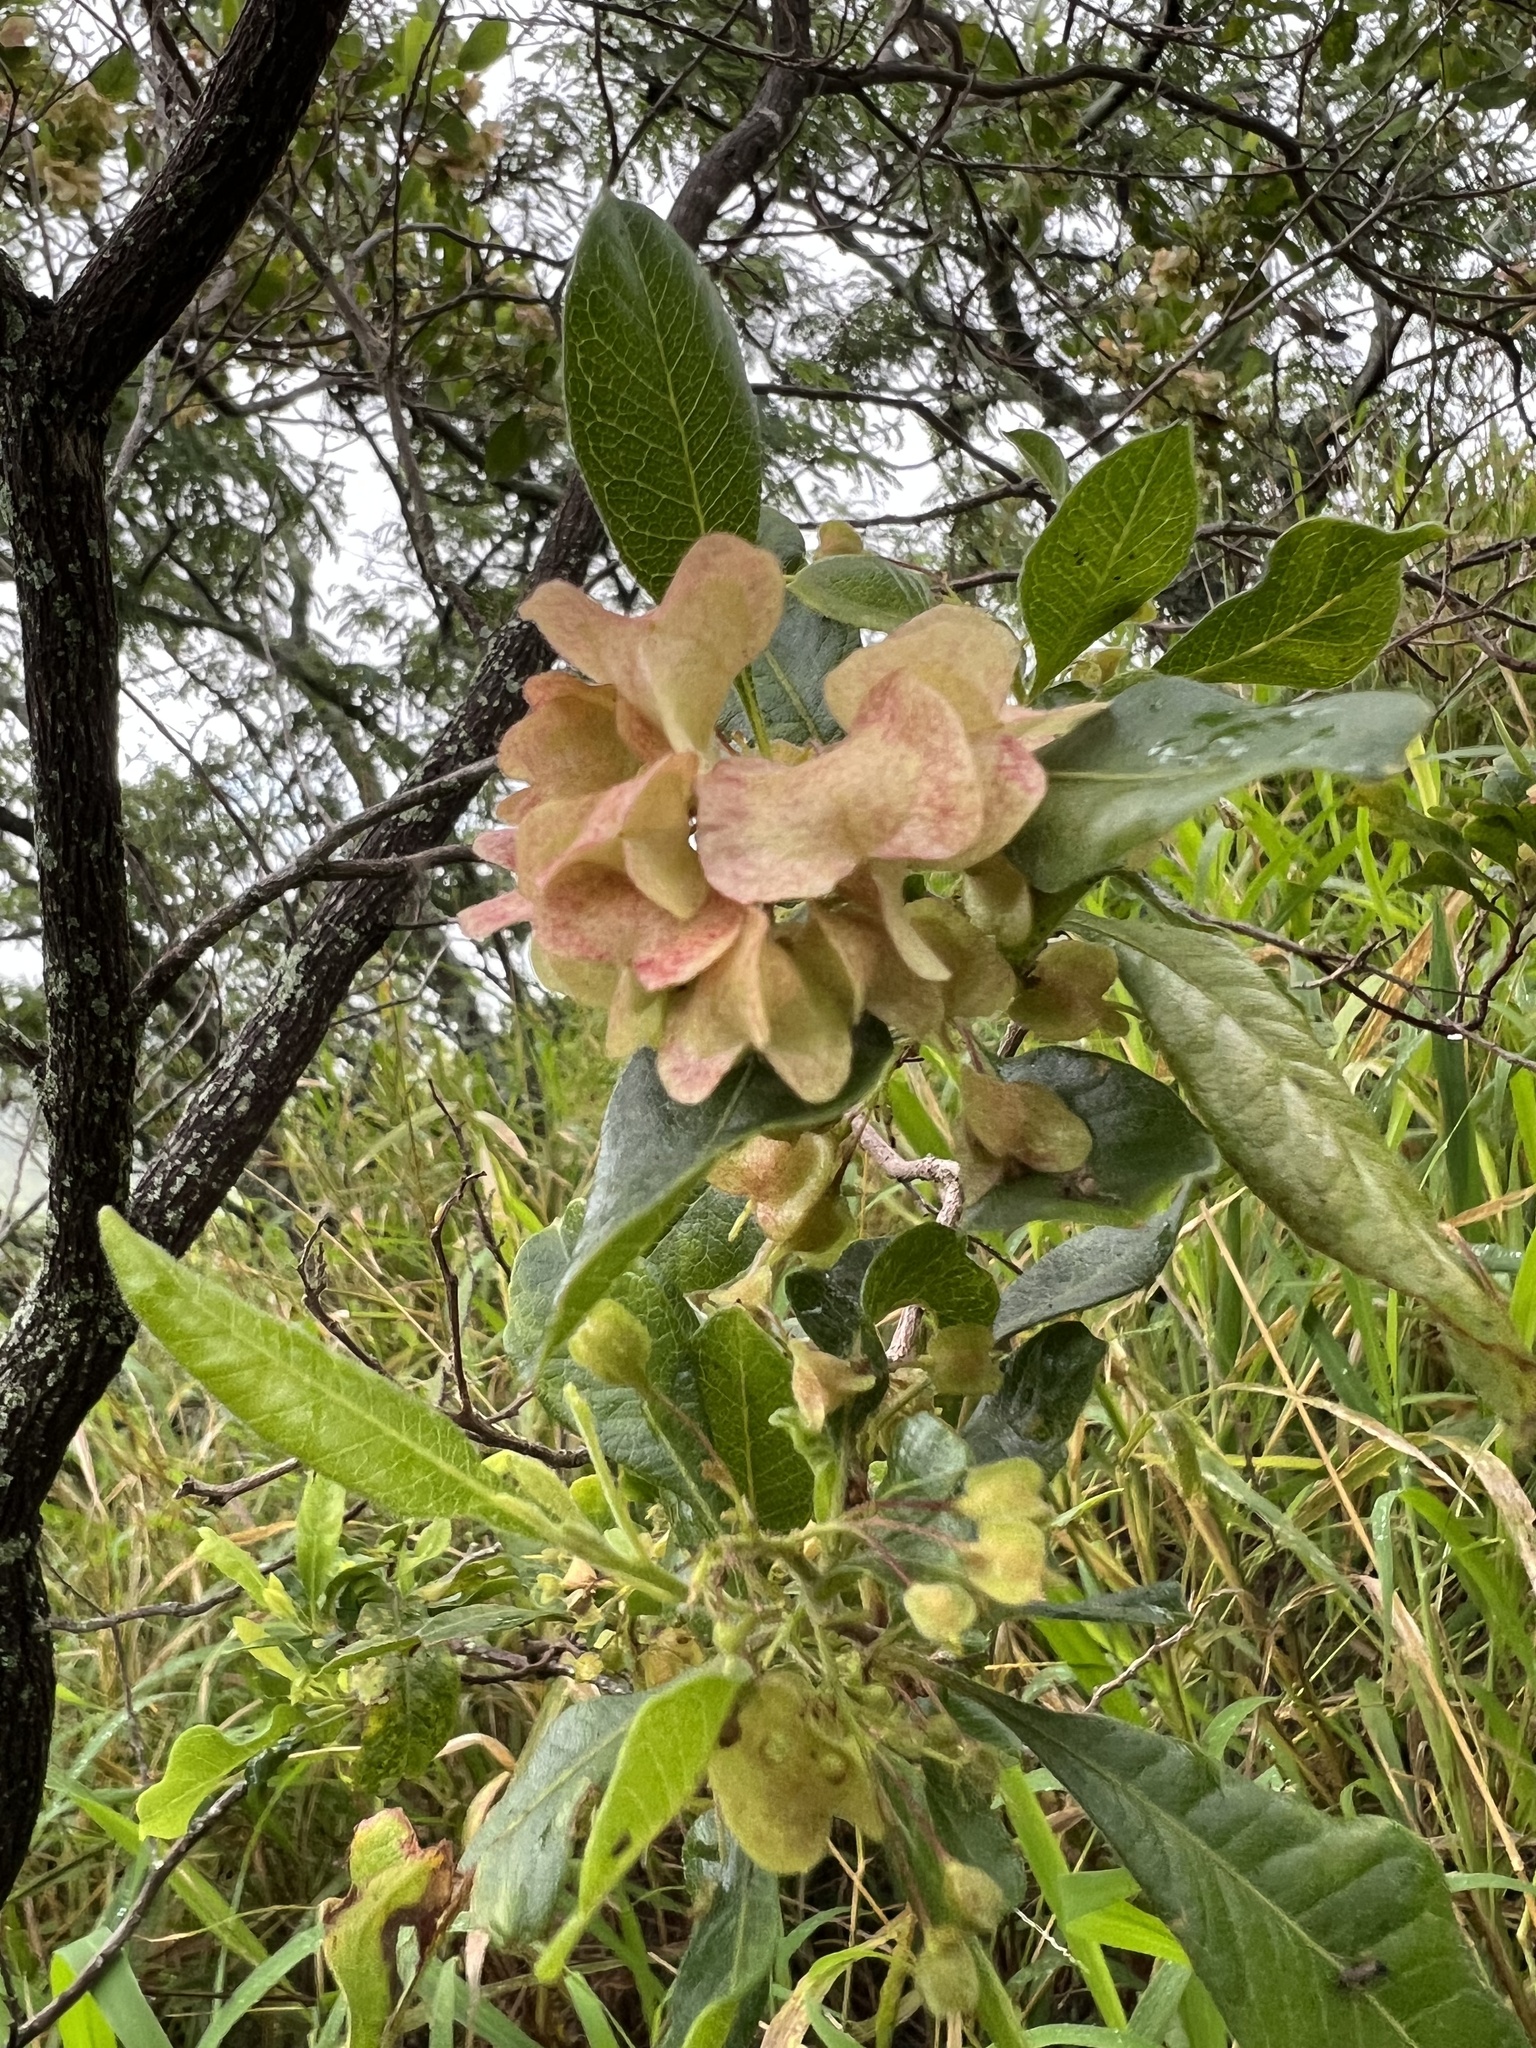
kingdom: Plantae
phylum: Tracheophyta
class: Magnoliopsida
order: Sapindales
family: Sapindaceae
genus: Dodonaea
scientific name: Dodonaea viscosa
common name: Hopbush
